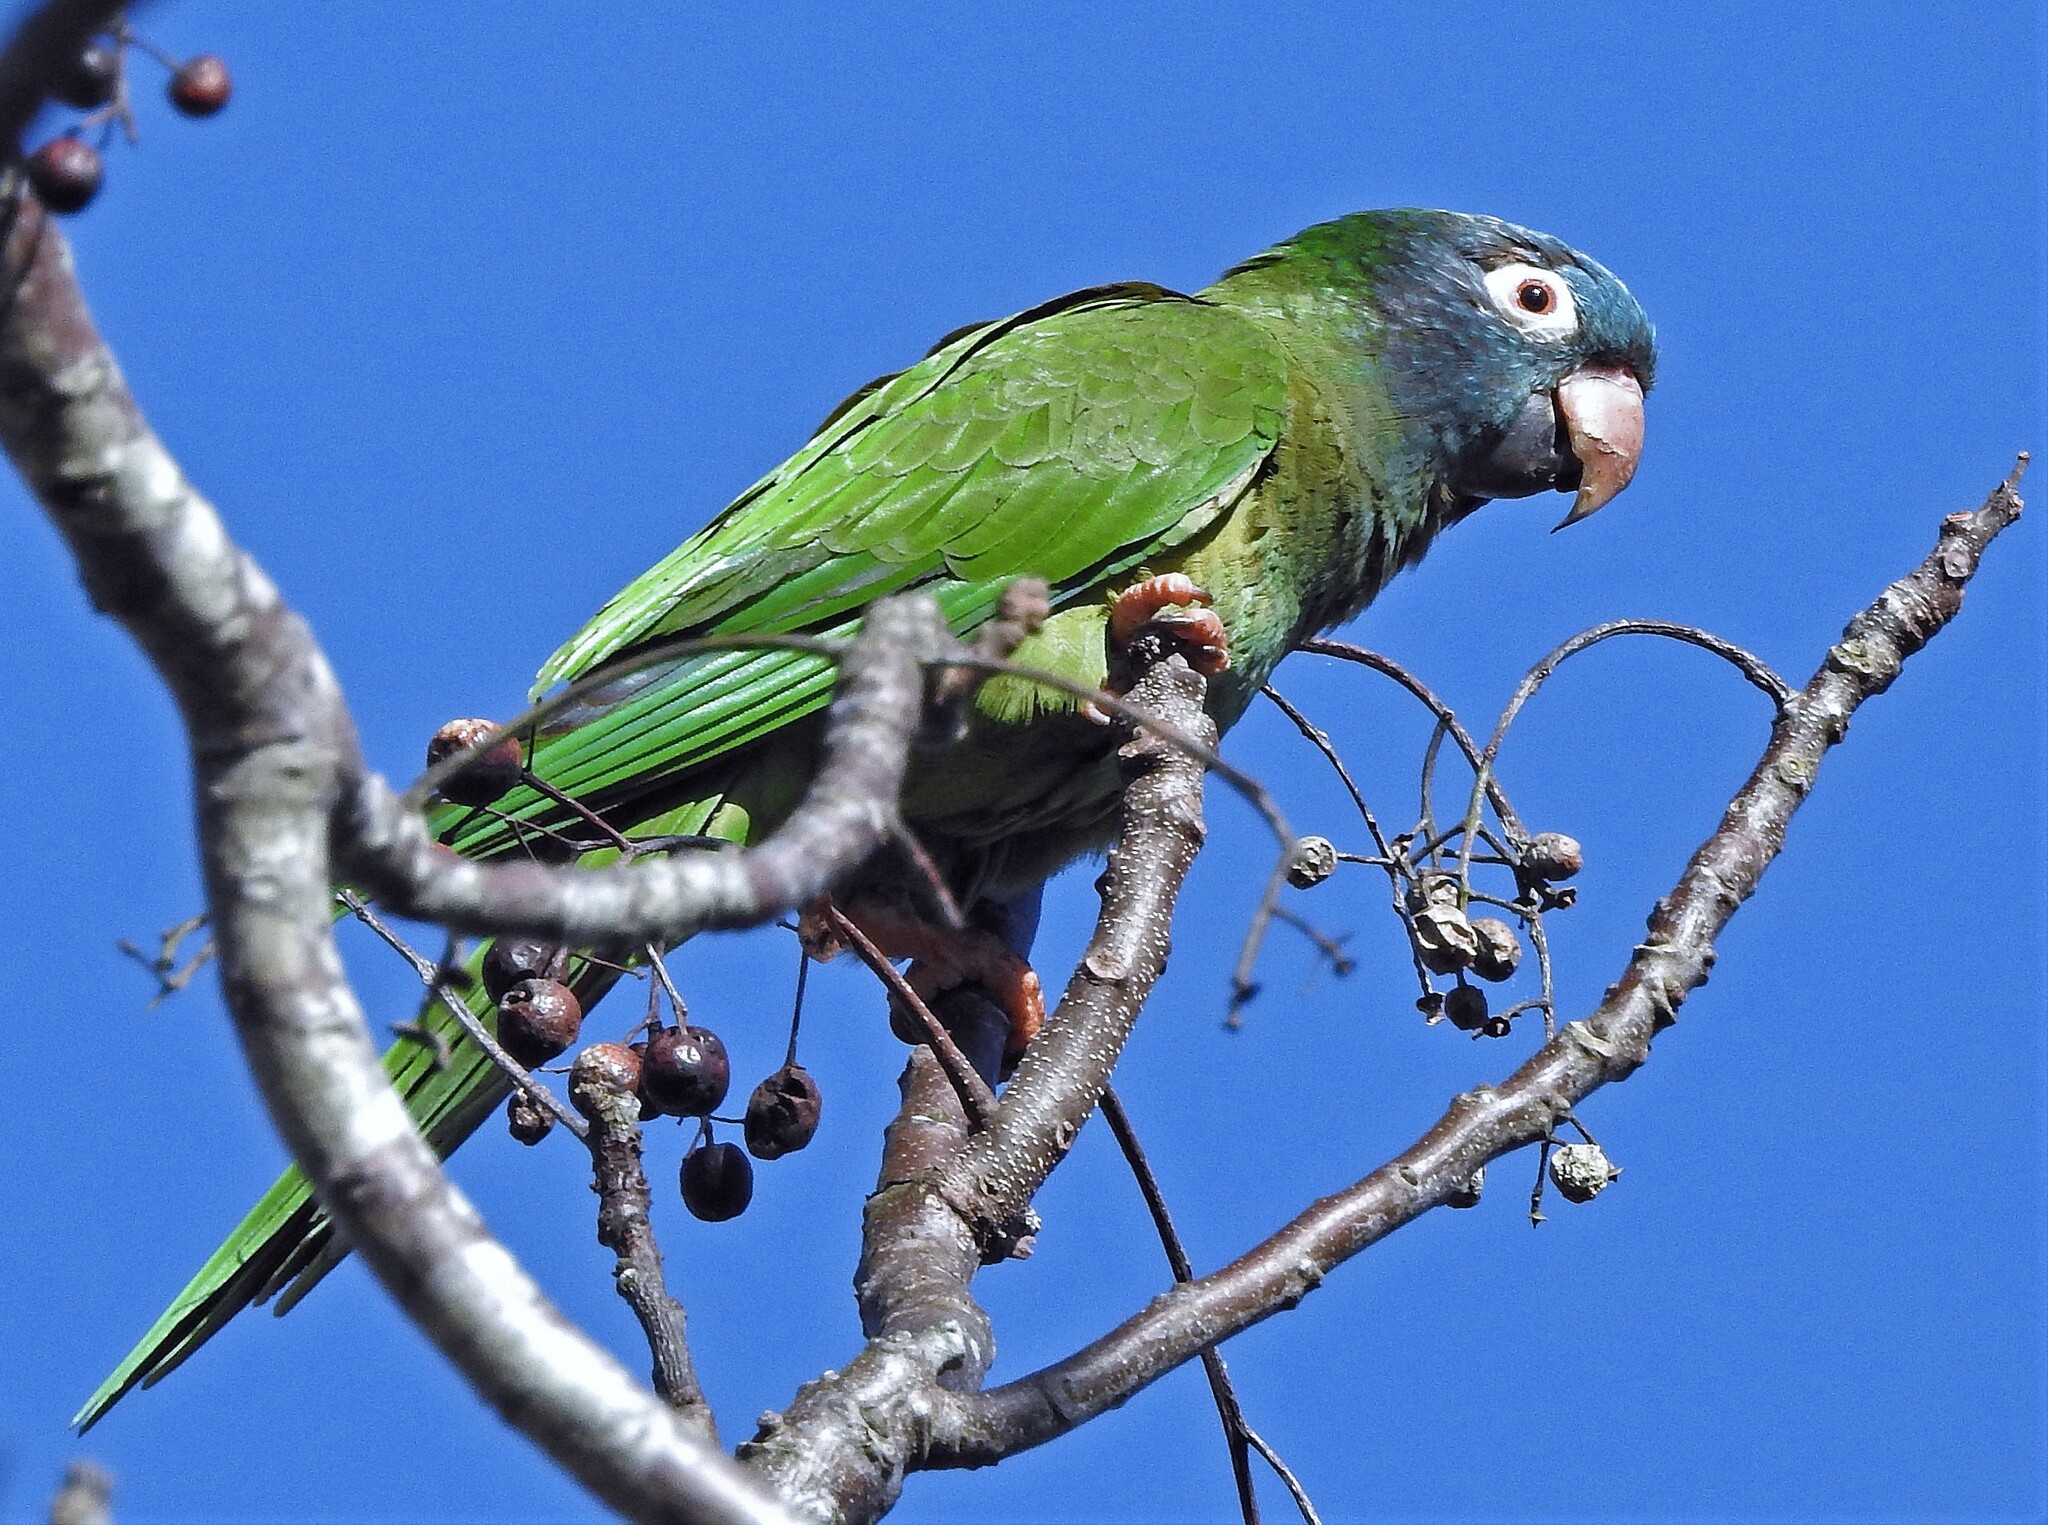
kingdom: Animalia
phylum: Chordata
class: Aves
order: Psittaciformes
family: Psittacidae
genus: Aratinga
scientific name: Aratinga acuticaudata
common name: Blue-crowned parakeet
